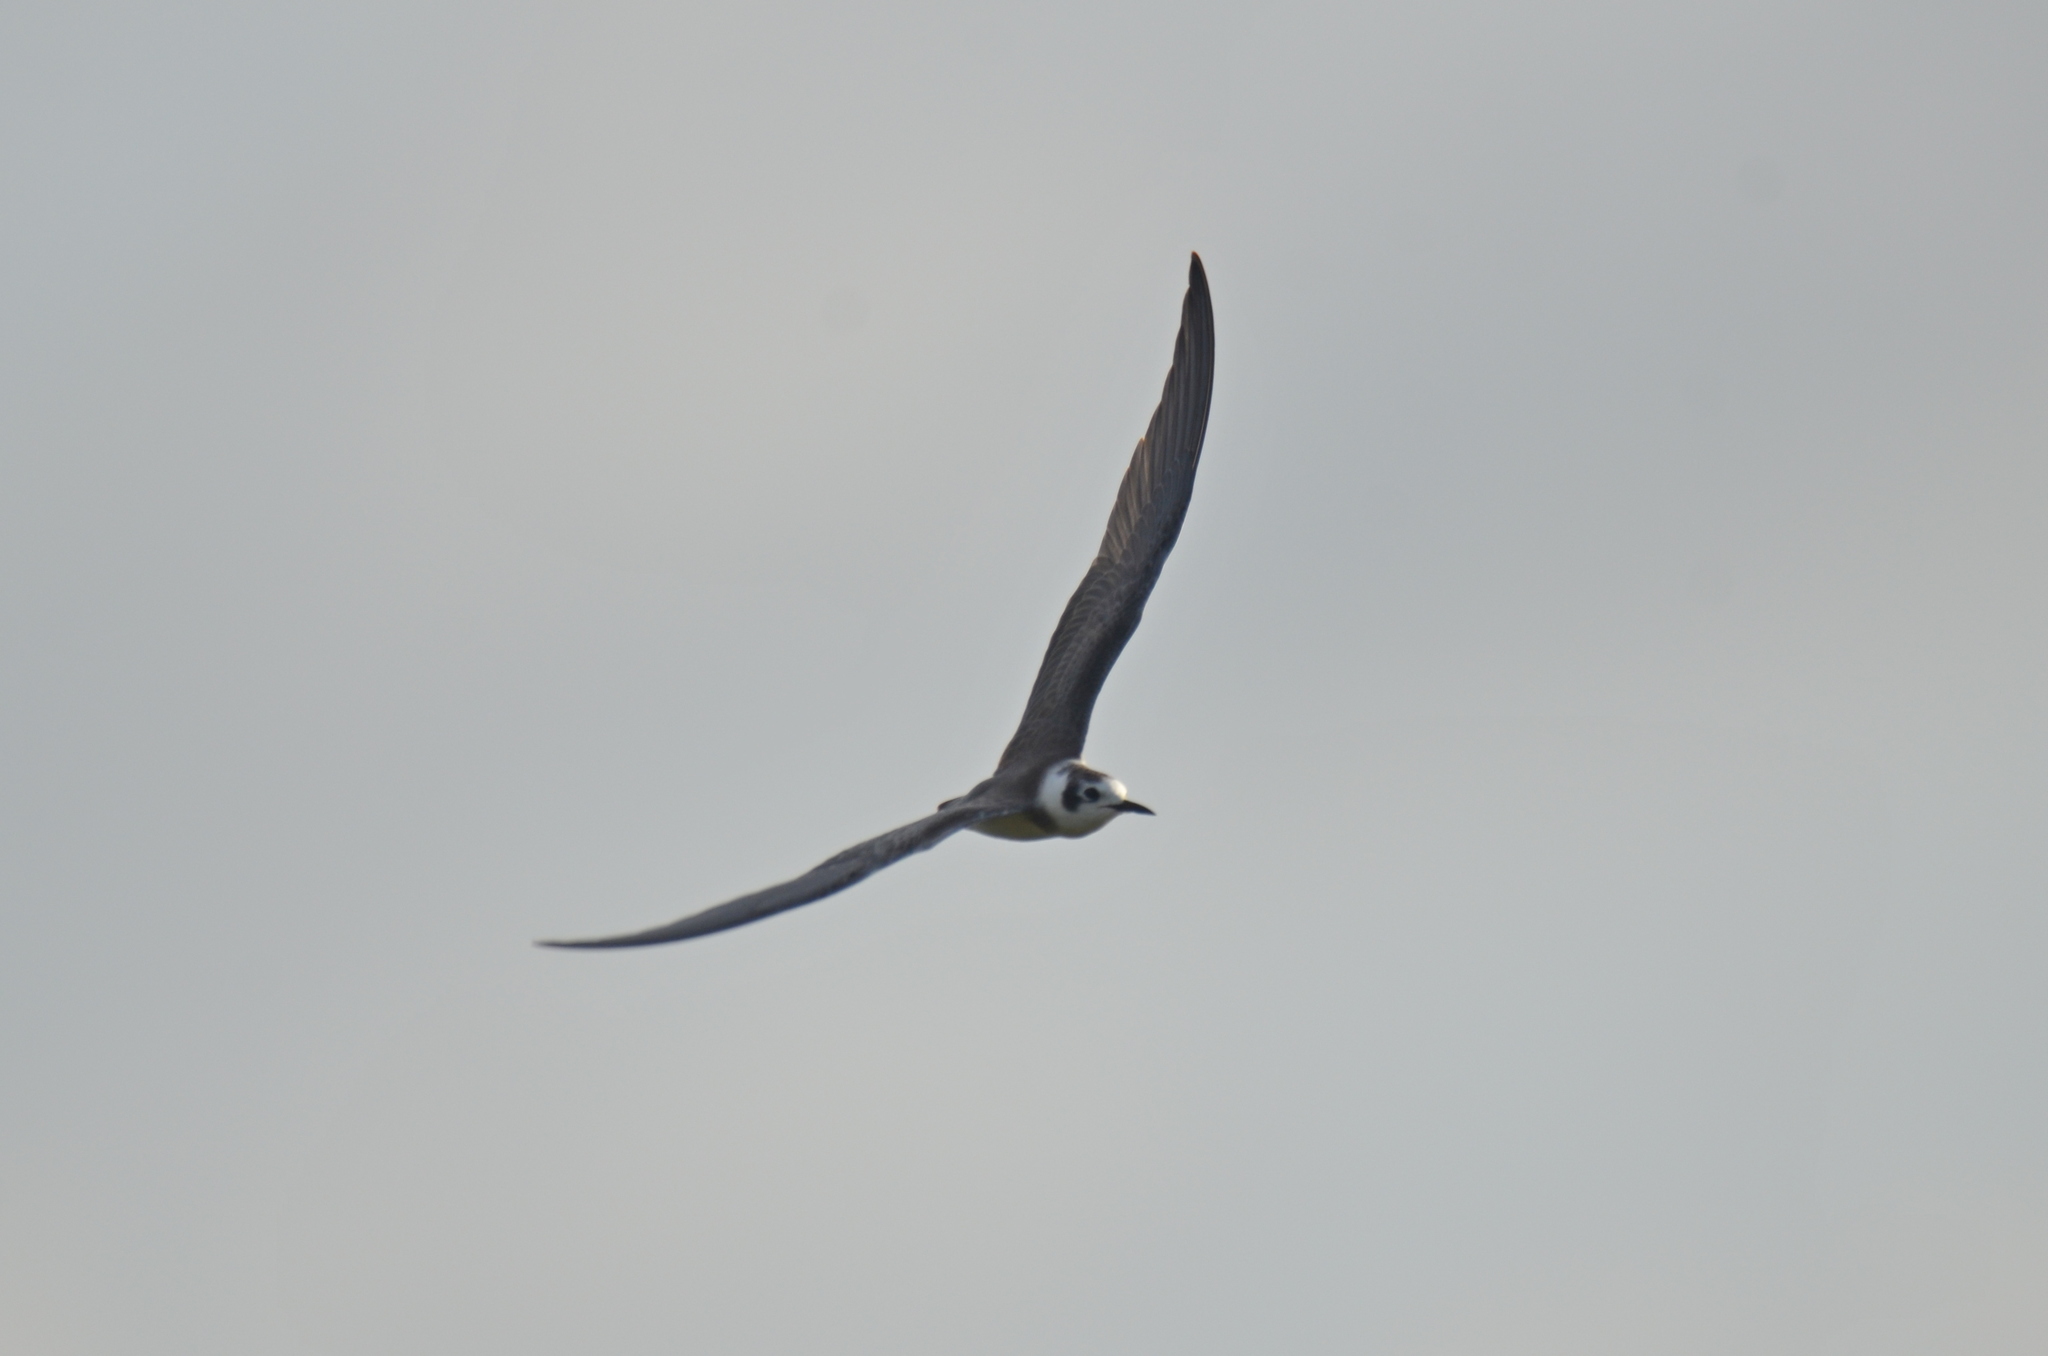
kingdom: Animalia
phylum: Chordata
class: Aves
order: Charadriiformes
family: Laridae
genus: Chlidonias
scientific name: Chlidonias niger
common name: Black tern
